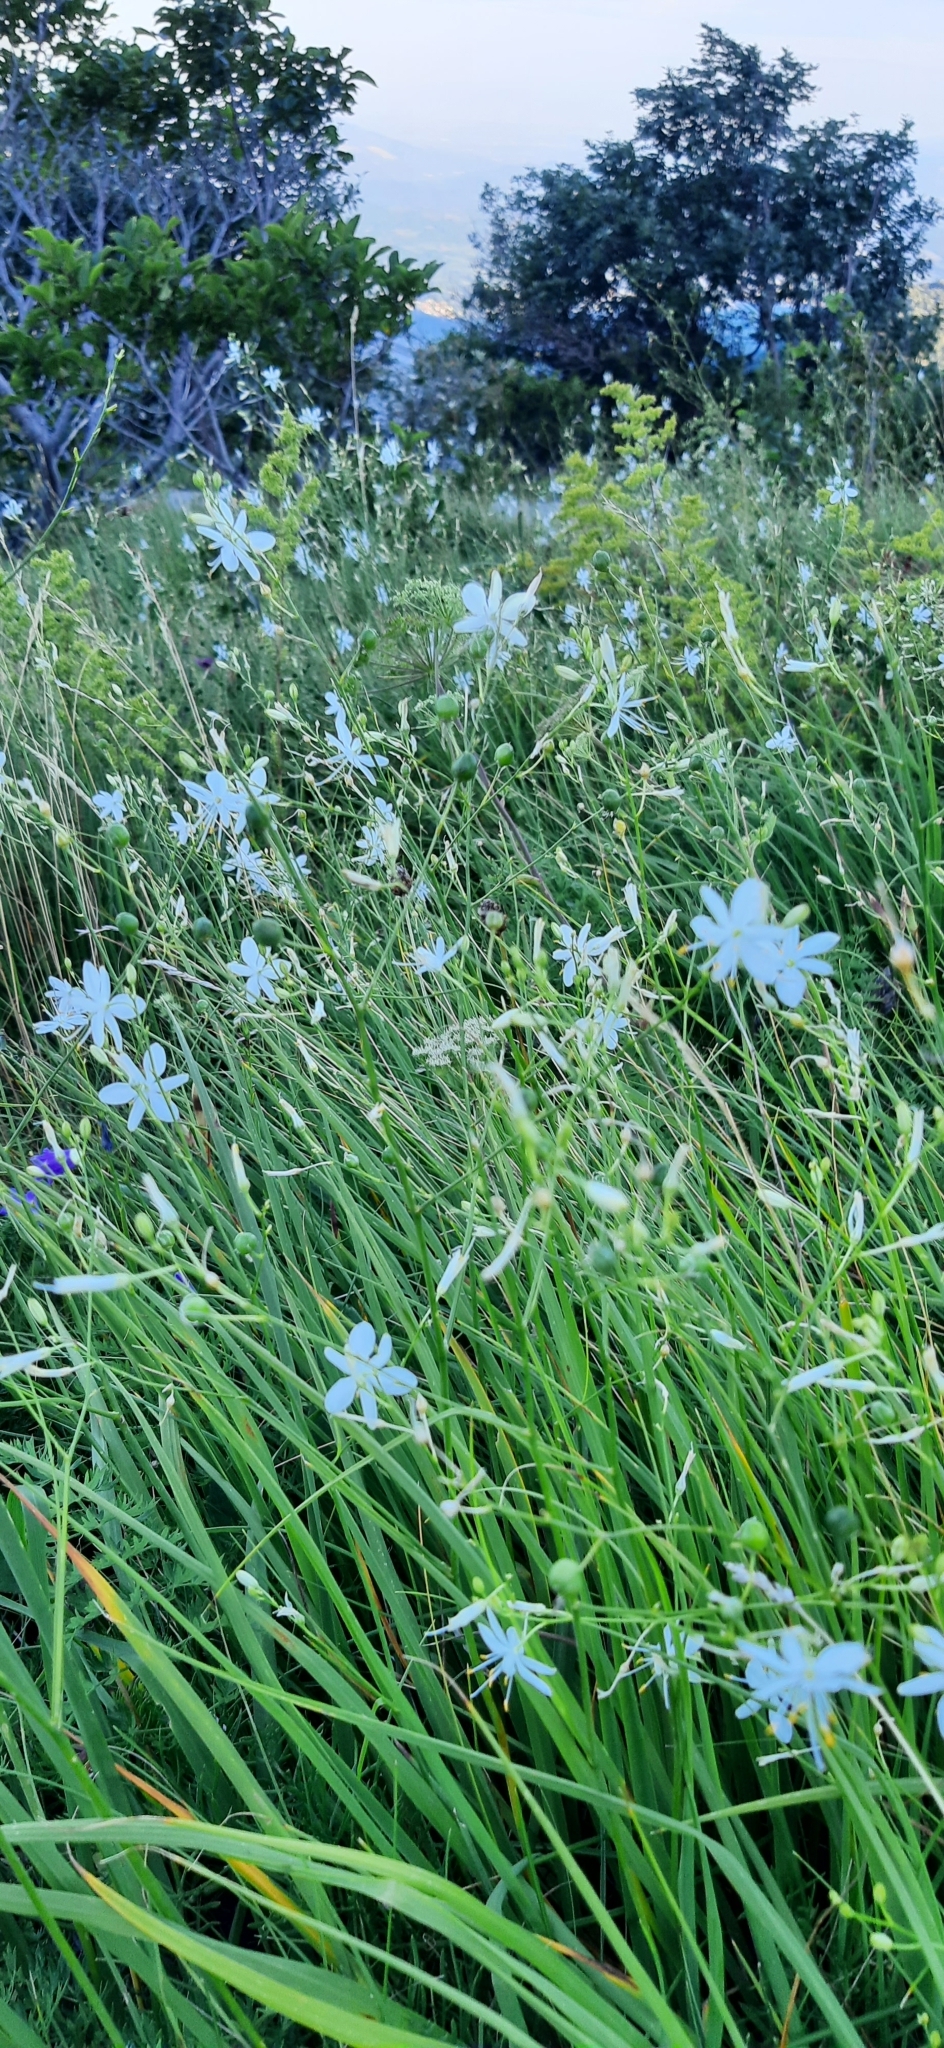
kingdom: Plantae
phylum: Tracheophyta
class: Liliopsida
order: Asparagales
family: Asparagaceae
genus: Anthericum
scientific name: Anthericum ramosum
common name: Branched st. bernard's-lily
